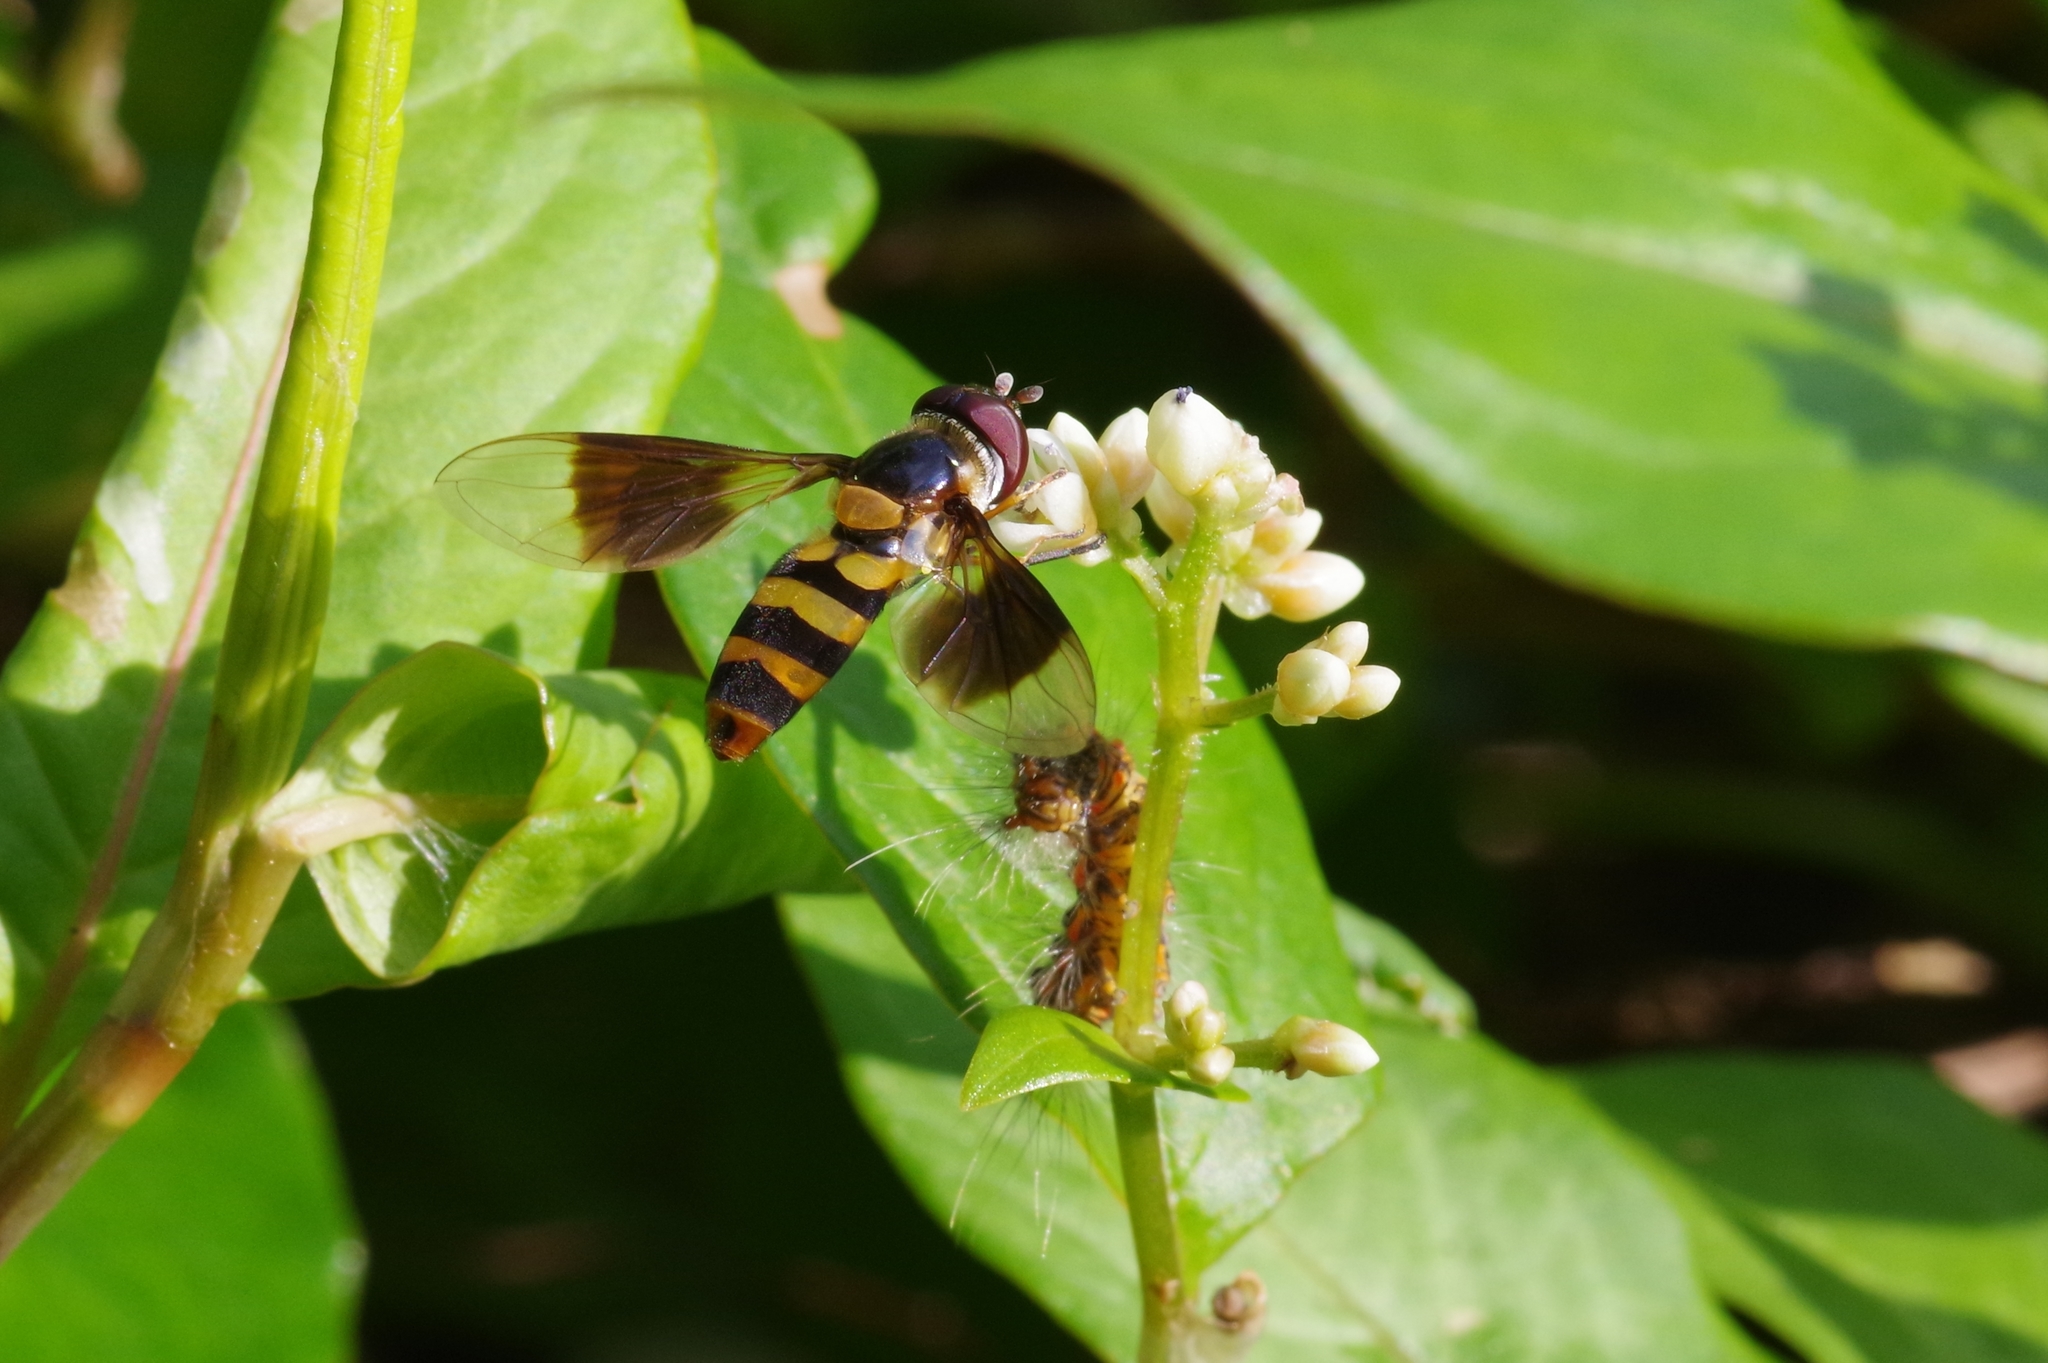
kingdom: Plantae
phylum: Tracheophyta
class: Magnoliopsida
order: Caryophyllales
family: Polygonaceae
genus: Persicaria
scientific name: Persicaria chinensis
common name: Chinese knotweed
